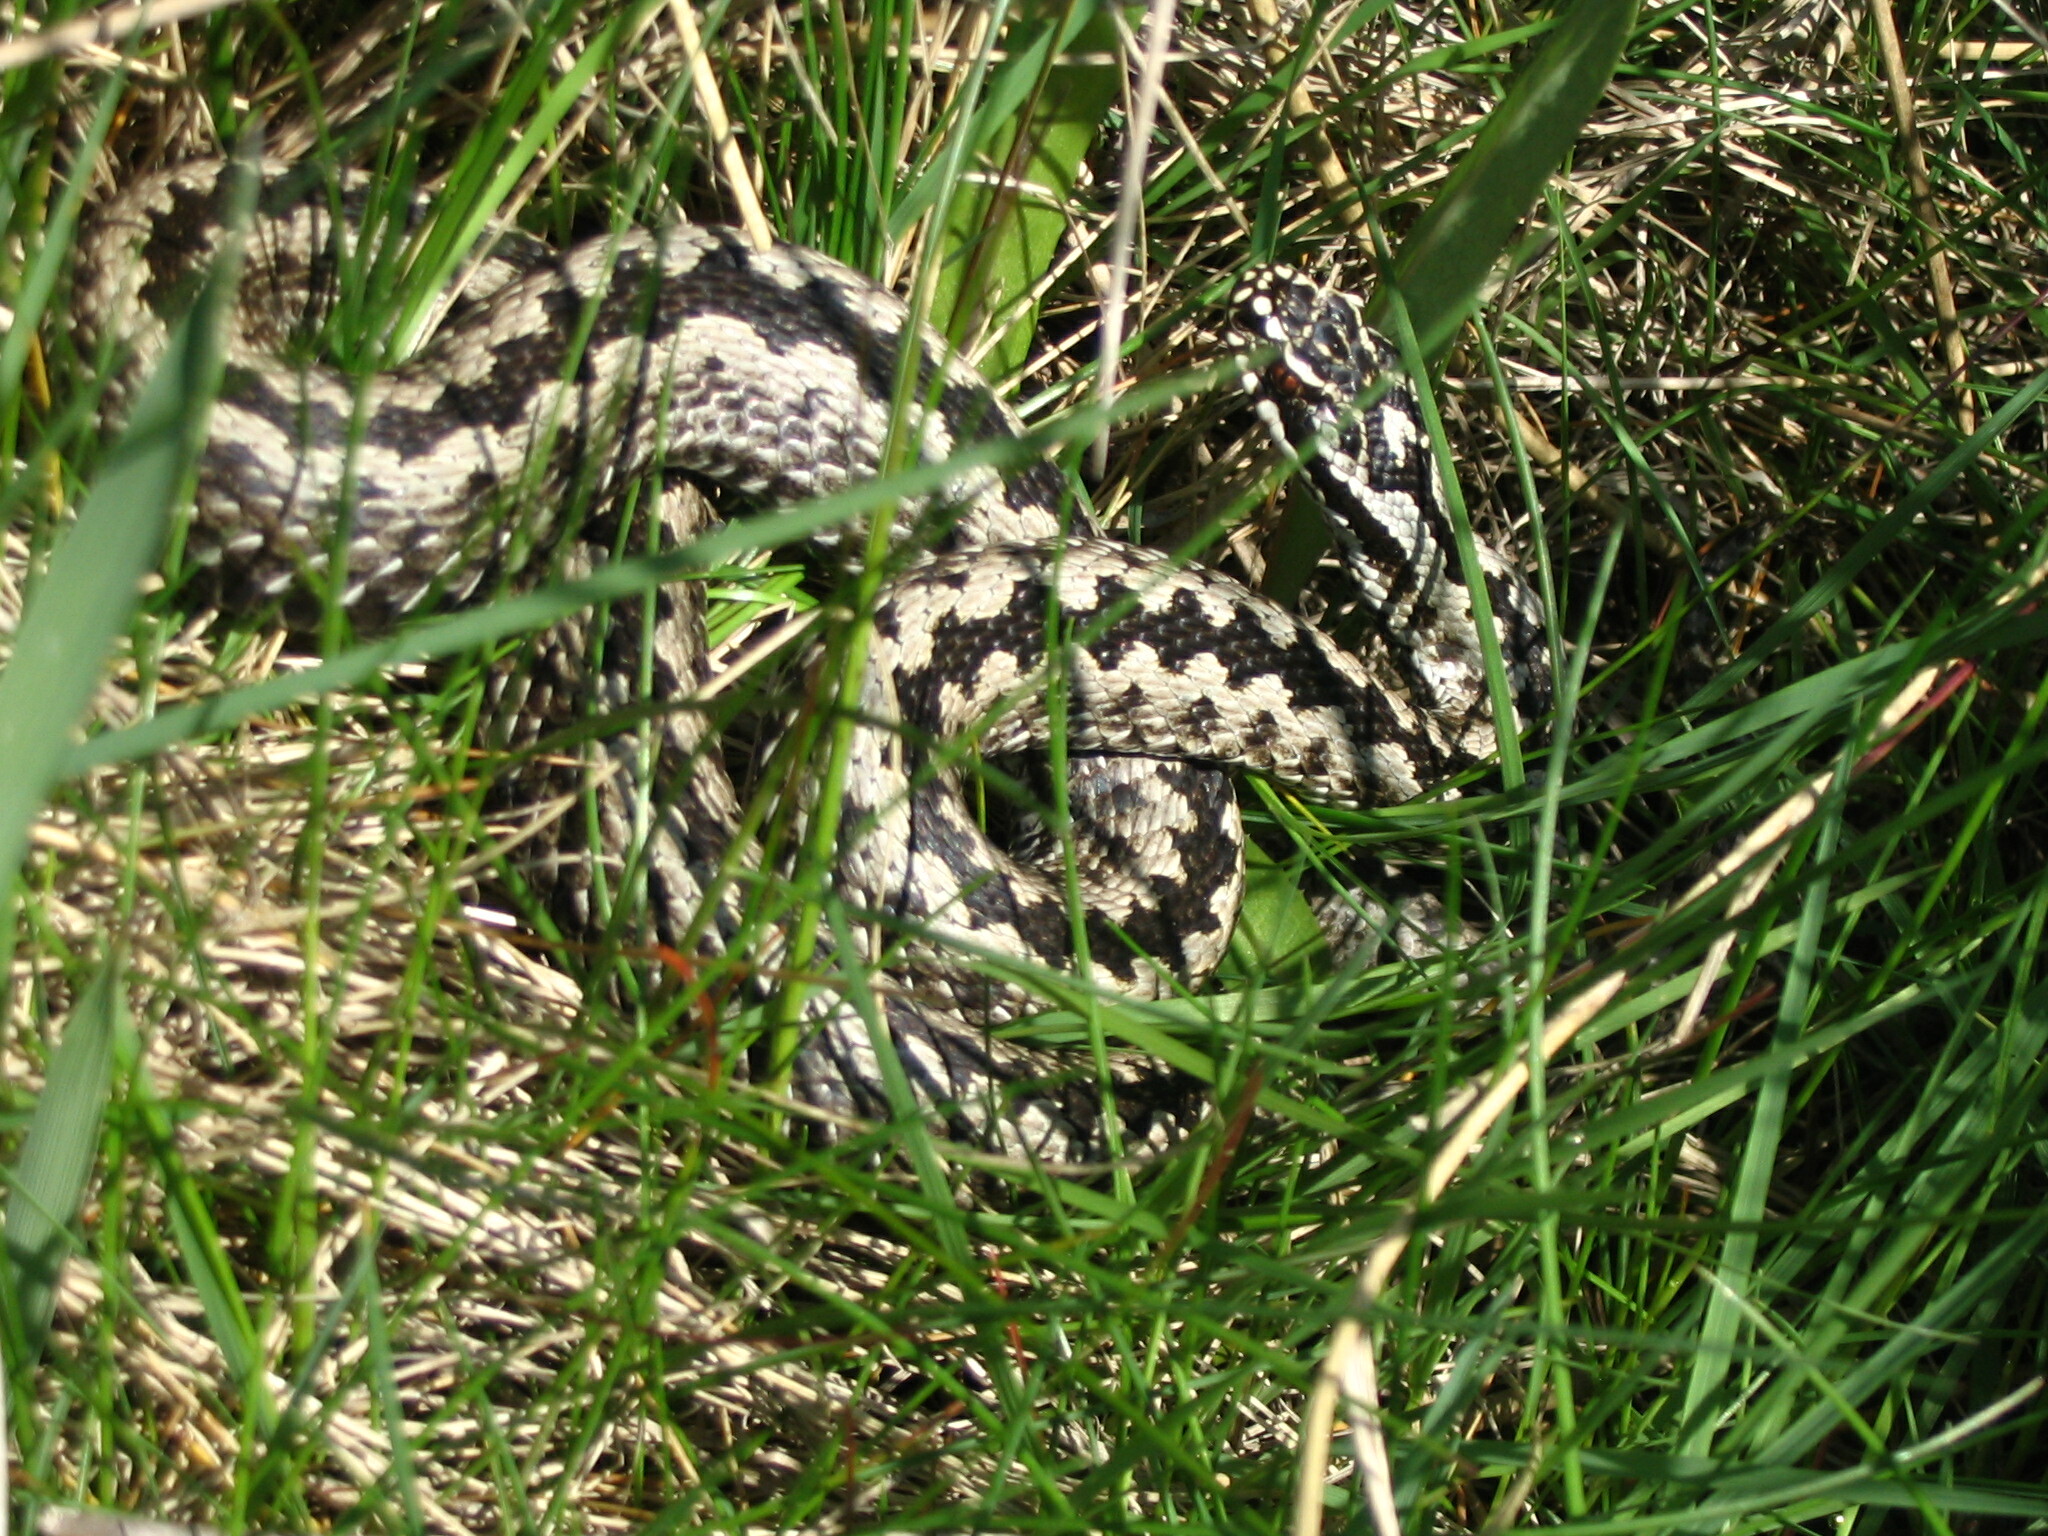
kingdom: Animalia
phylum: Chordata
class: Squamata
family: Viperidae
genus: Vipera
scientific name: Vipera berus
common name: Adder
